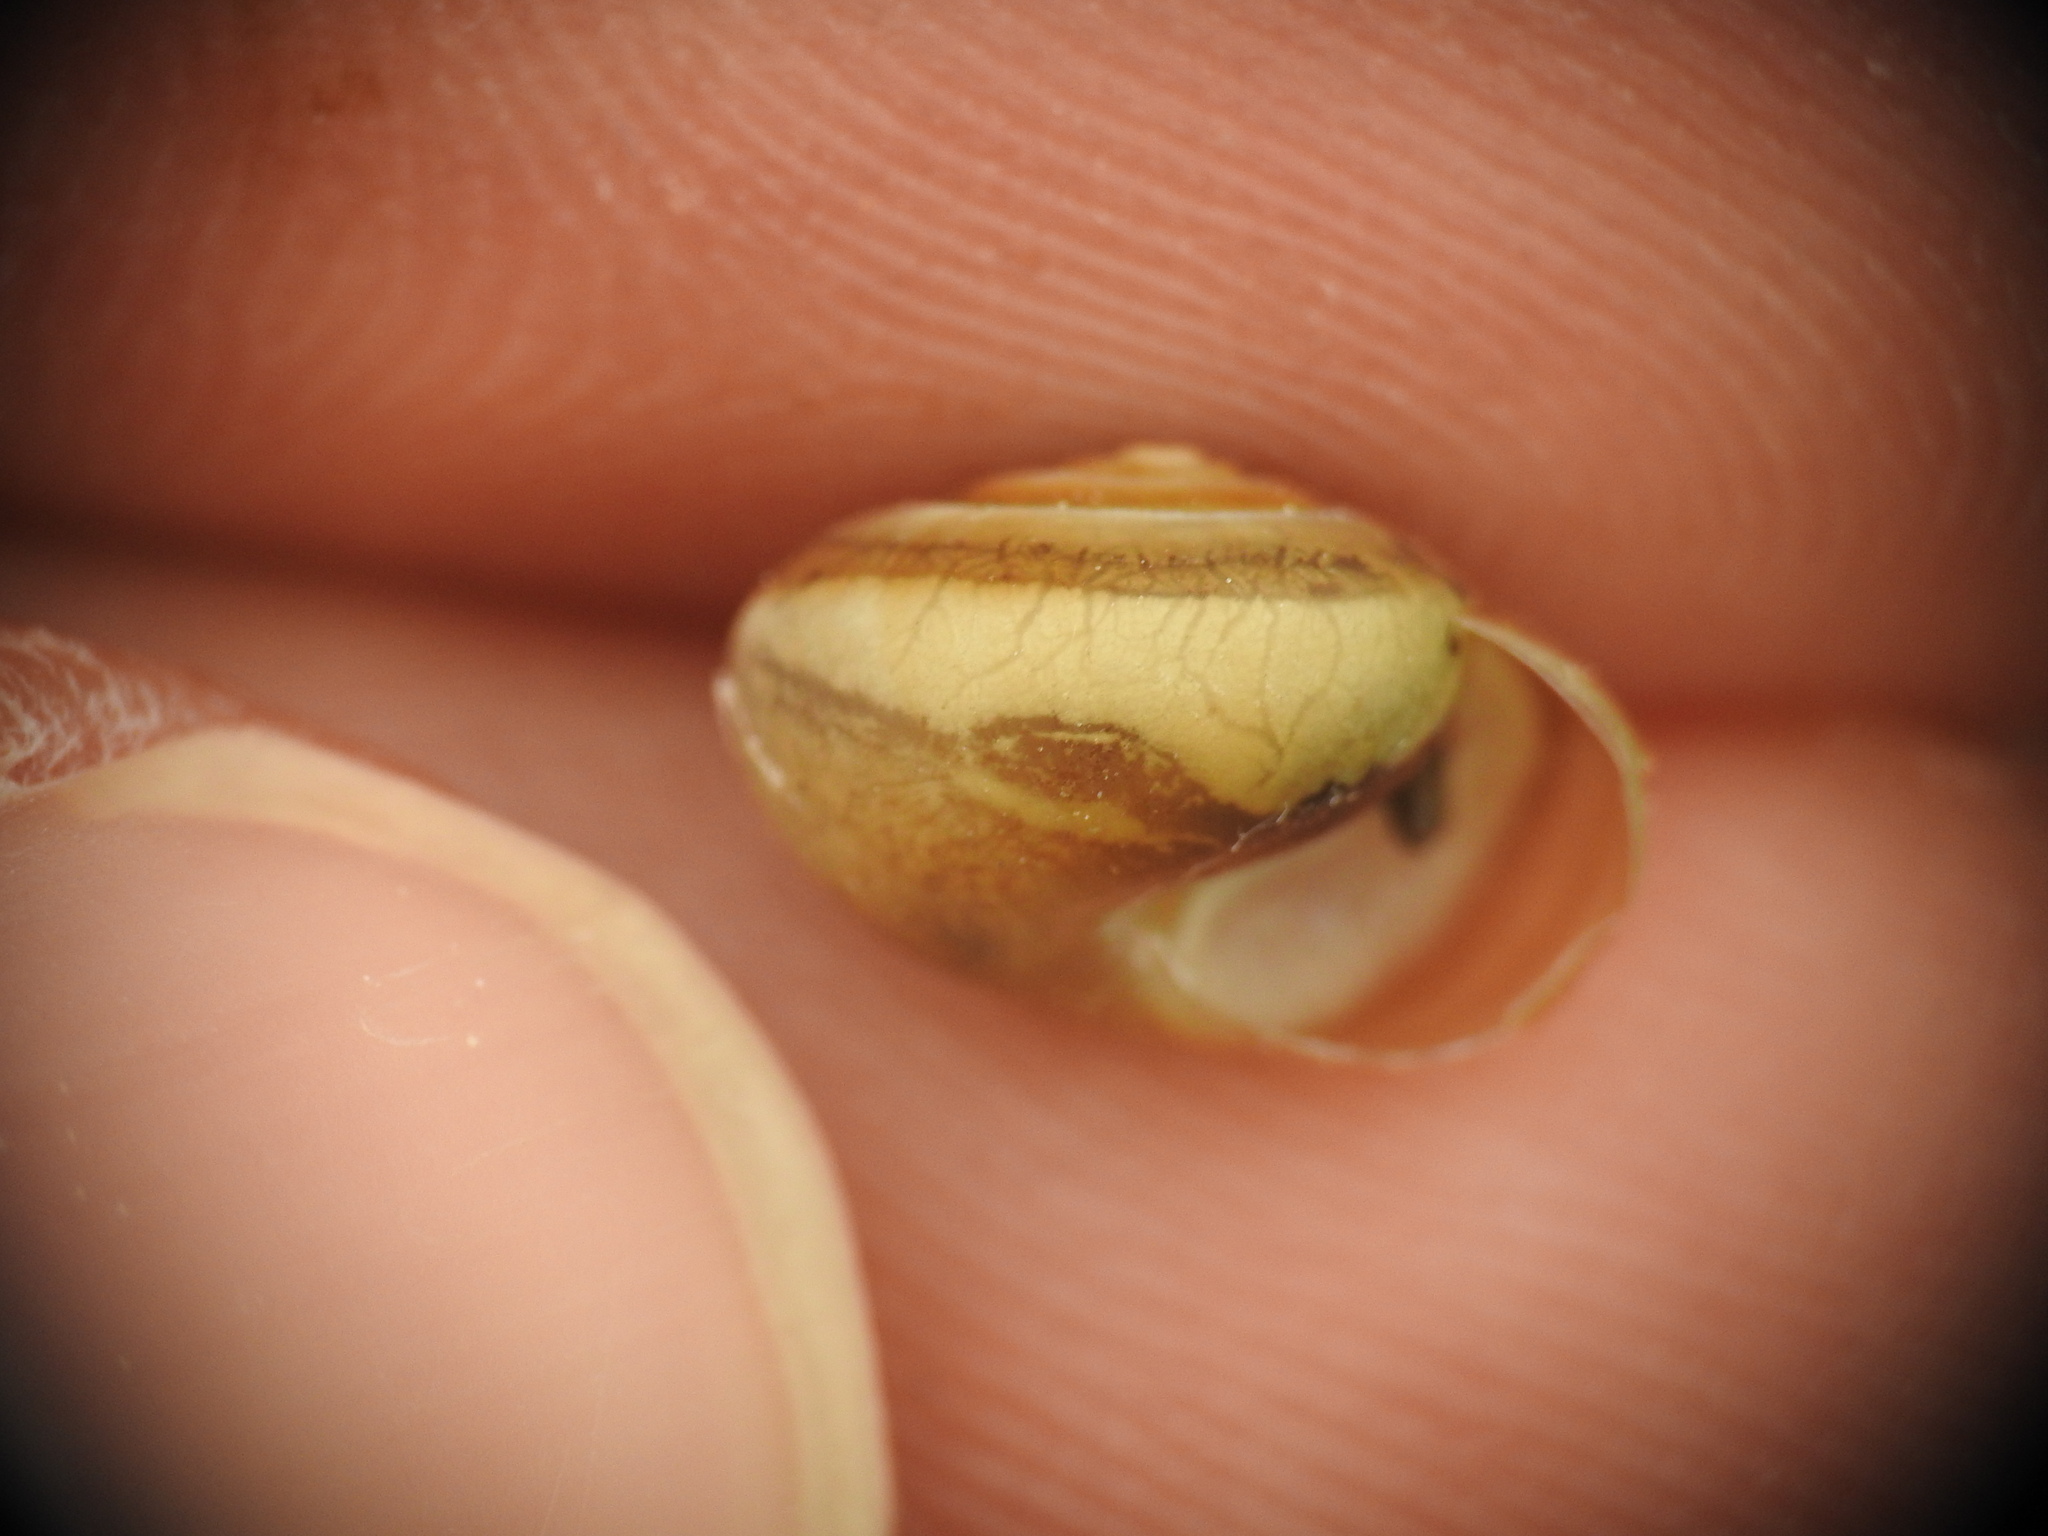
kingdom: Animalia
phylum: Mollusca
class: Gastropoda
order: Stylommatophora
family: Hygromiidae
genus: Monacha
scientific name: Monacha syriaca
